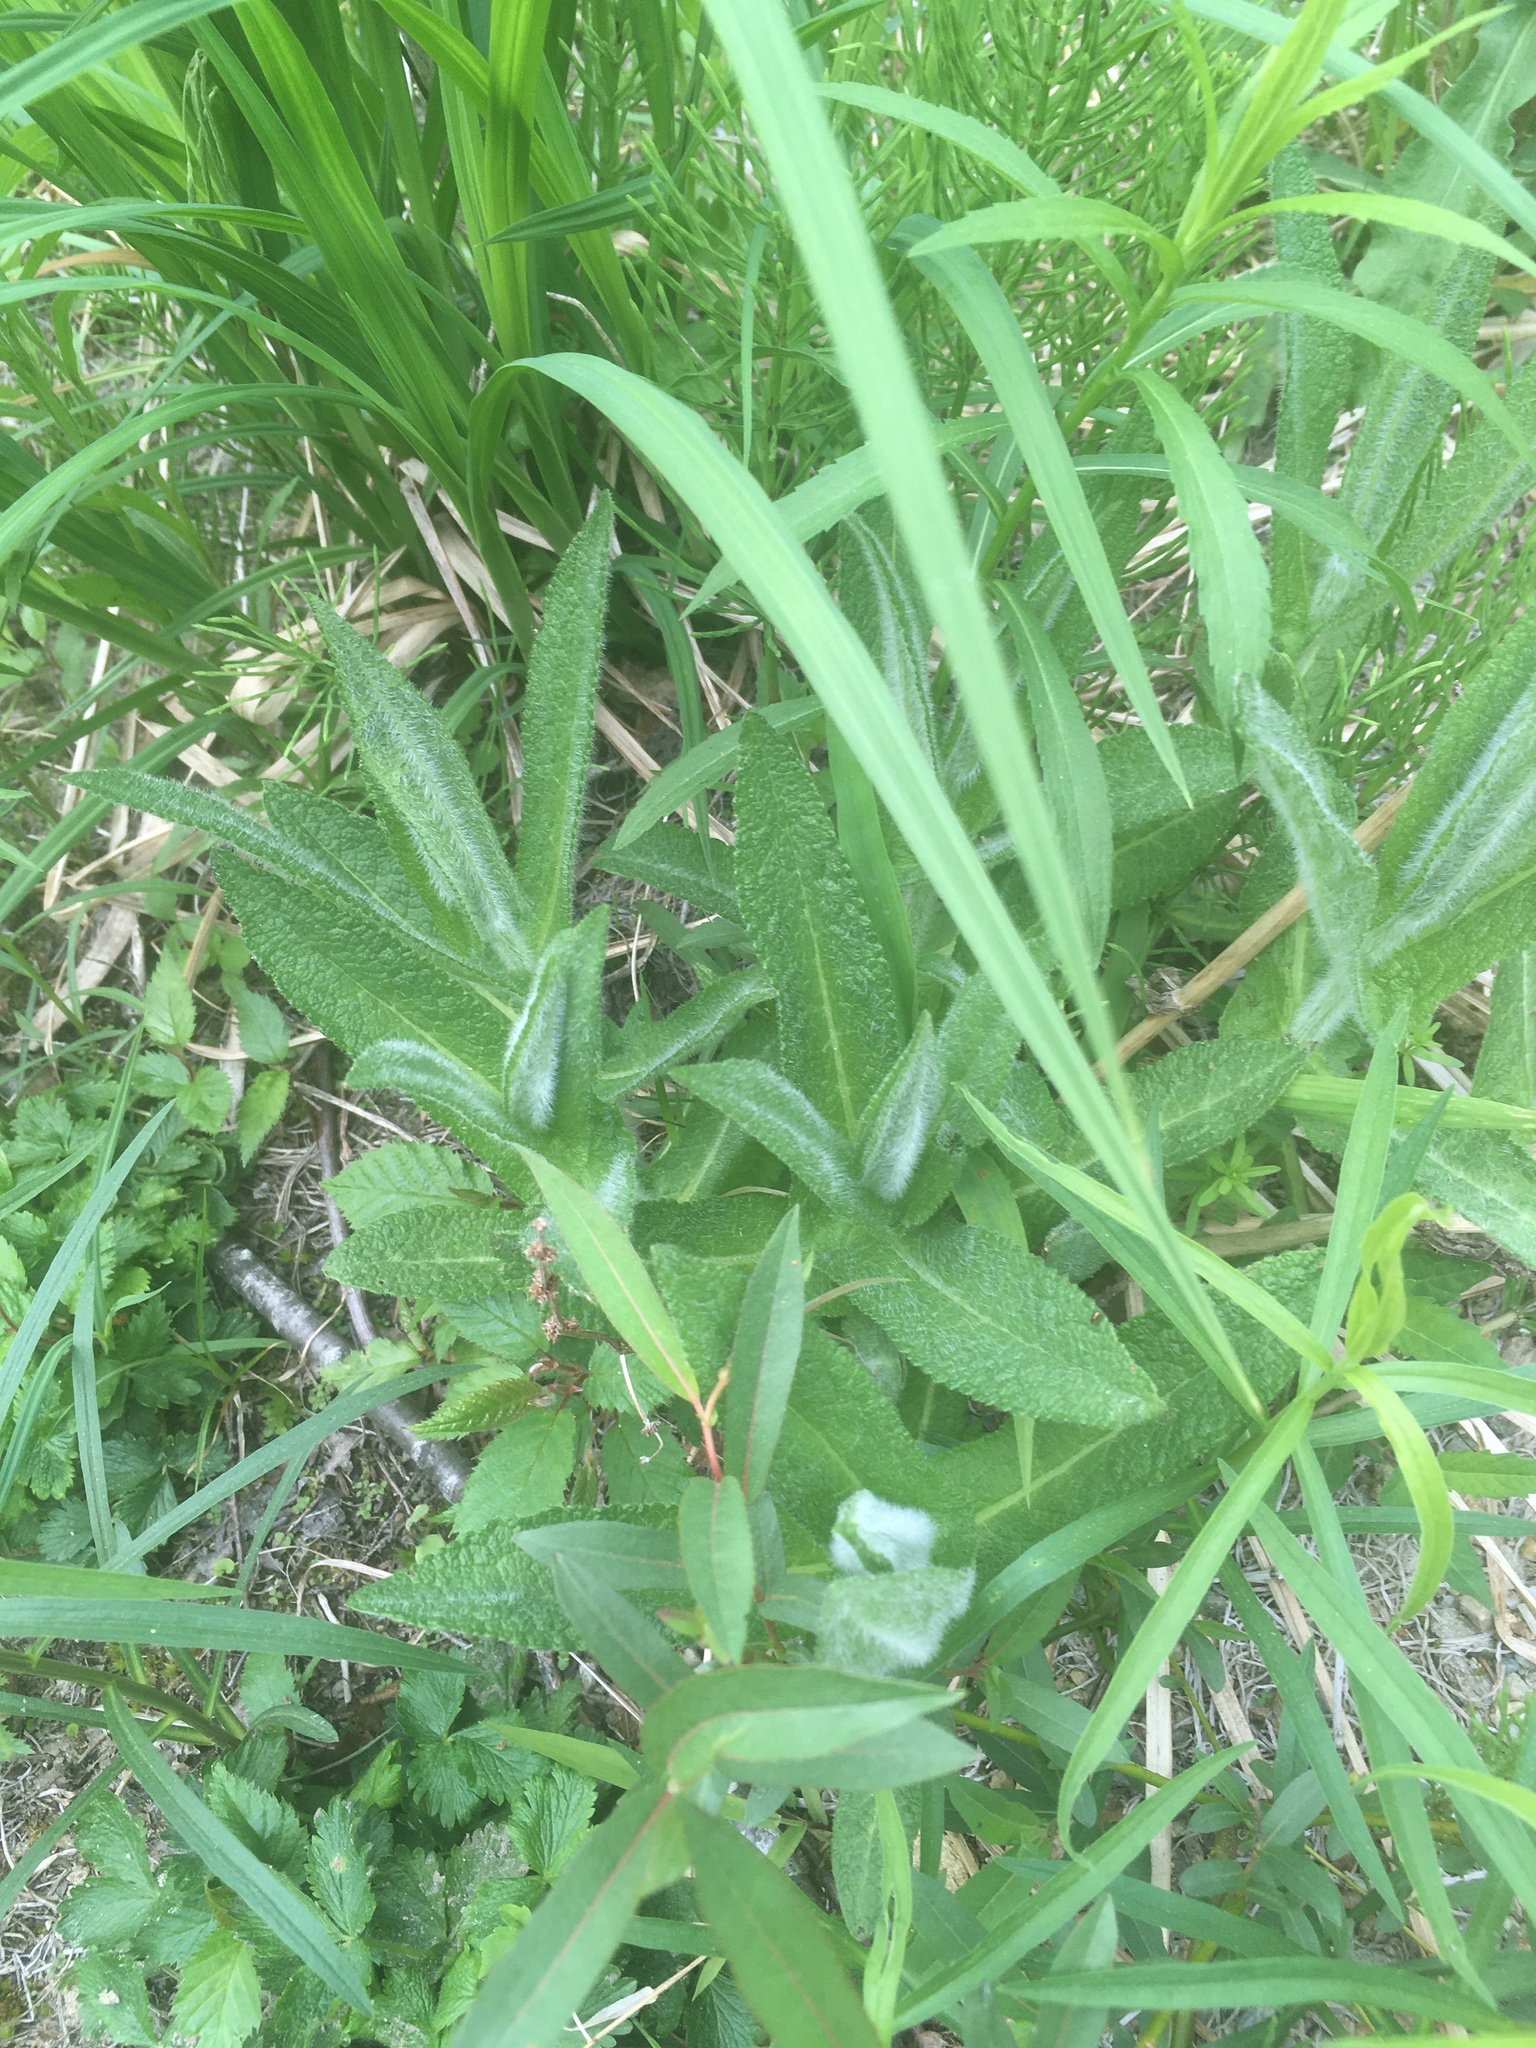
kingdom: Plantae
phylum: Tracheophyta
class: Magnoliopsida
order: Asterales
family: Asteraceae
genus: Eupatorium
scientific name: Eupatorium perfoliatum
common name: Boneset
